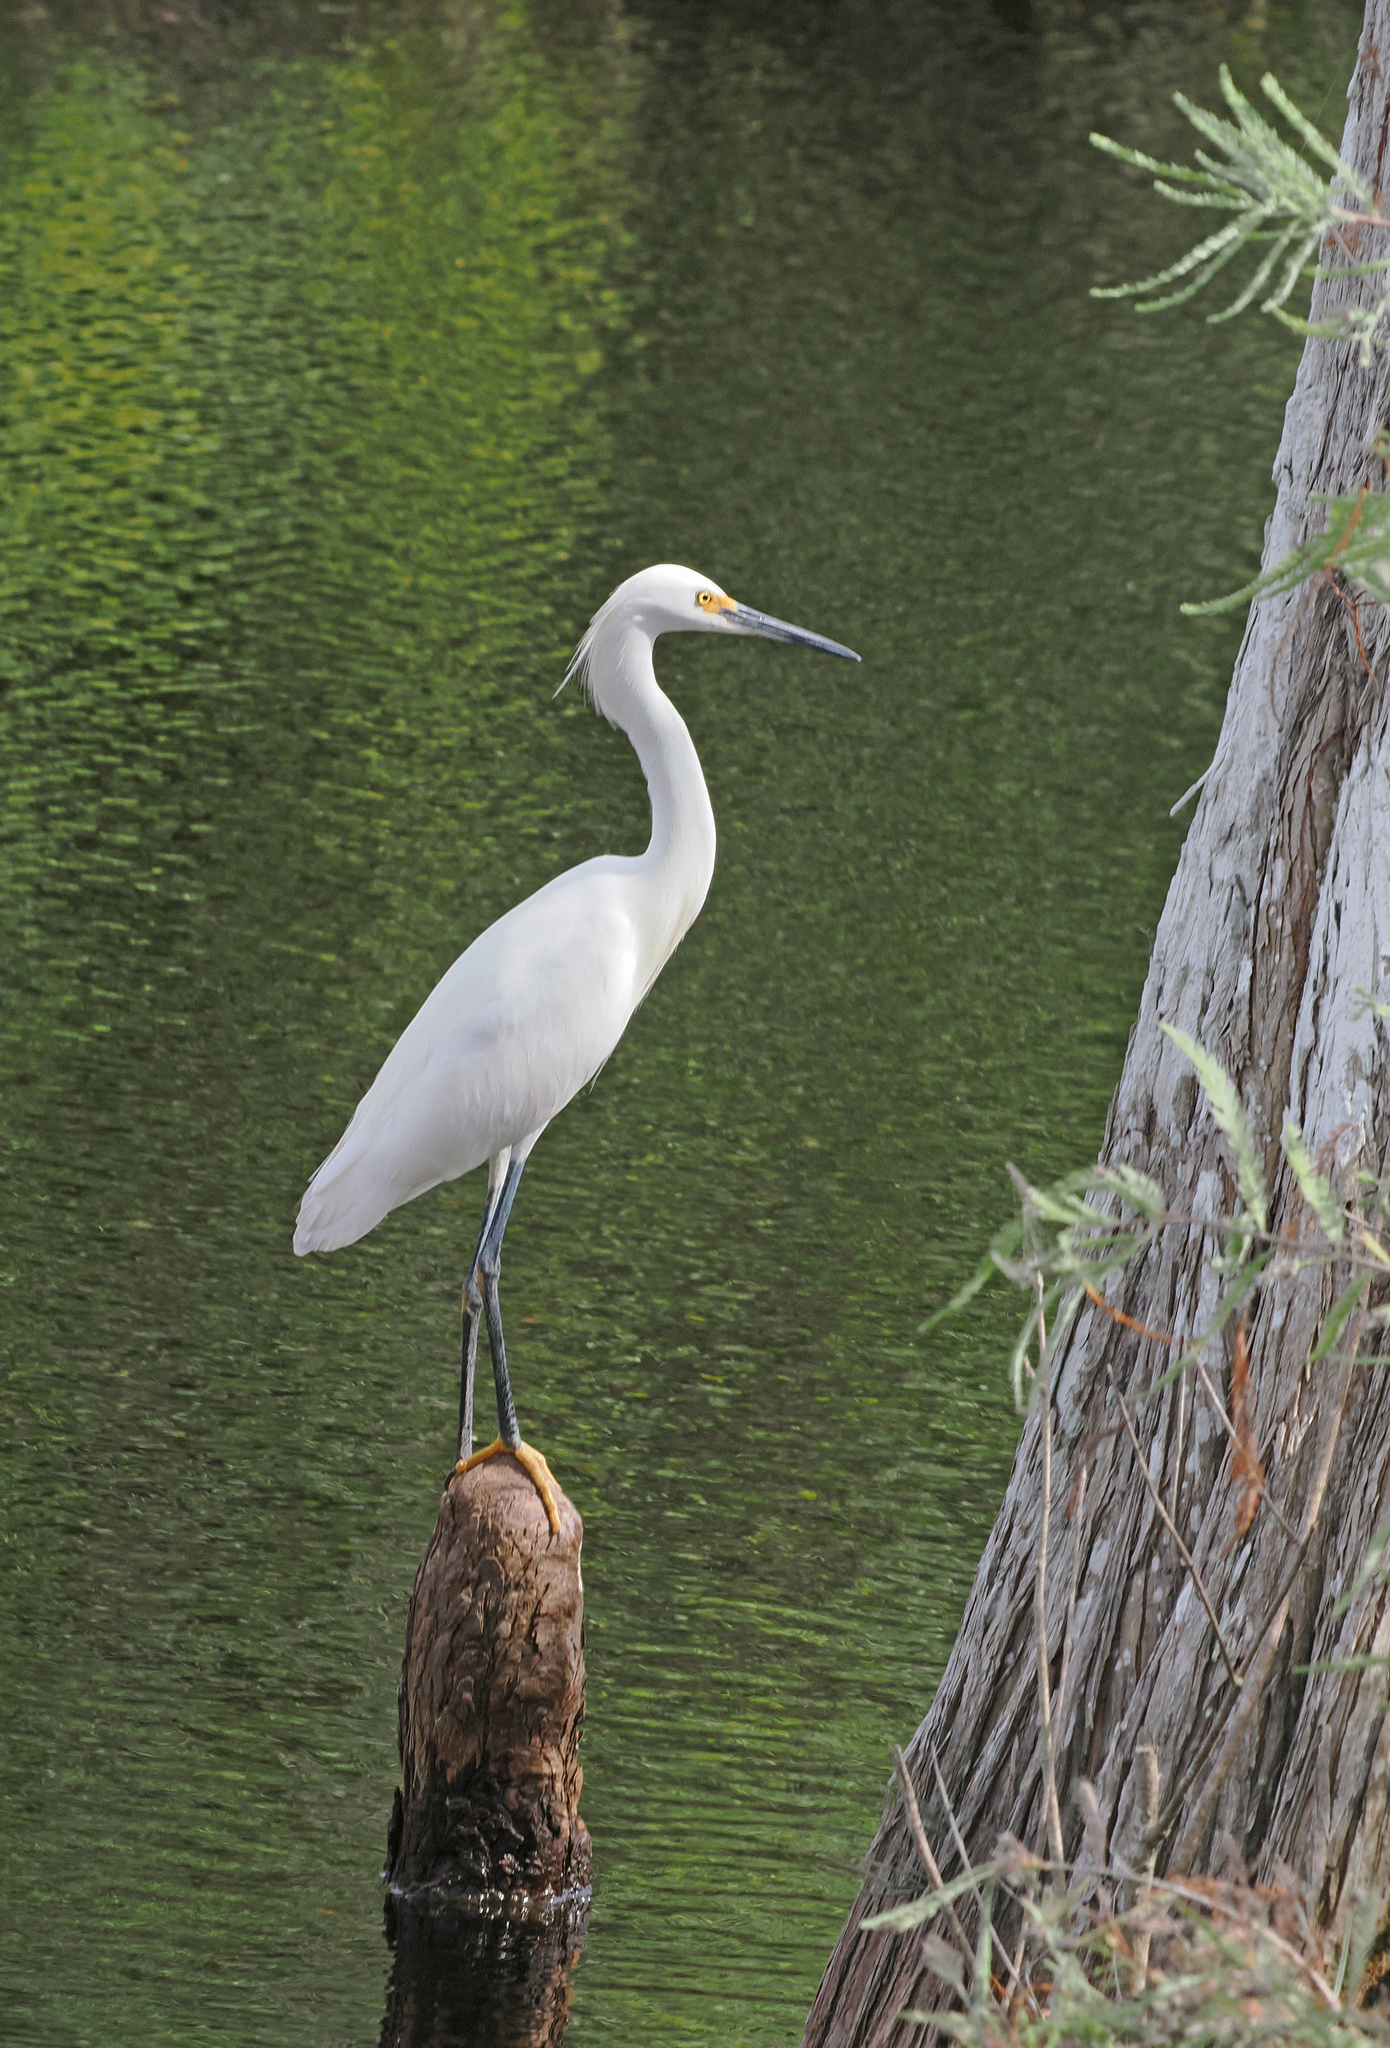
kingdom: Animalia
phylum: Chordata
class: Aves
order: Pelecaniformes
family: Ardeidae
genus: Egretta
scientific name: Egretta thula
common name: Snowy egret
